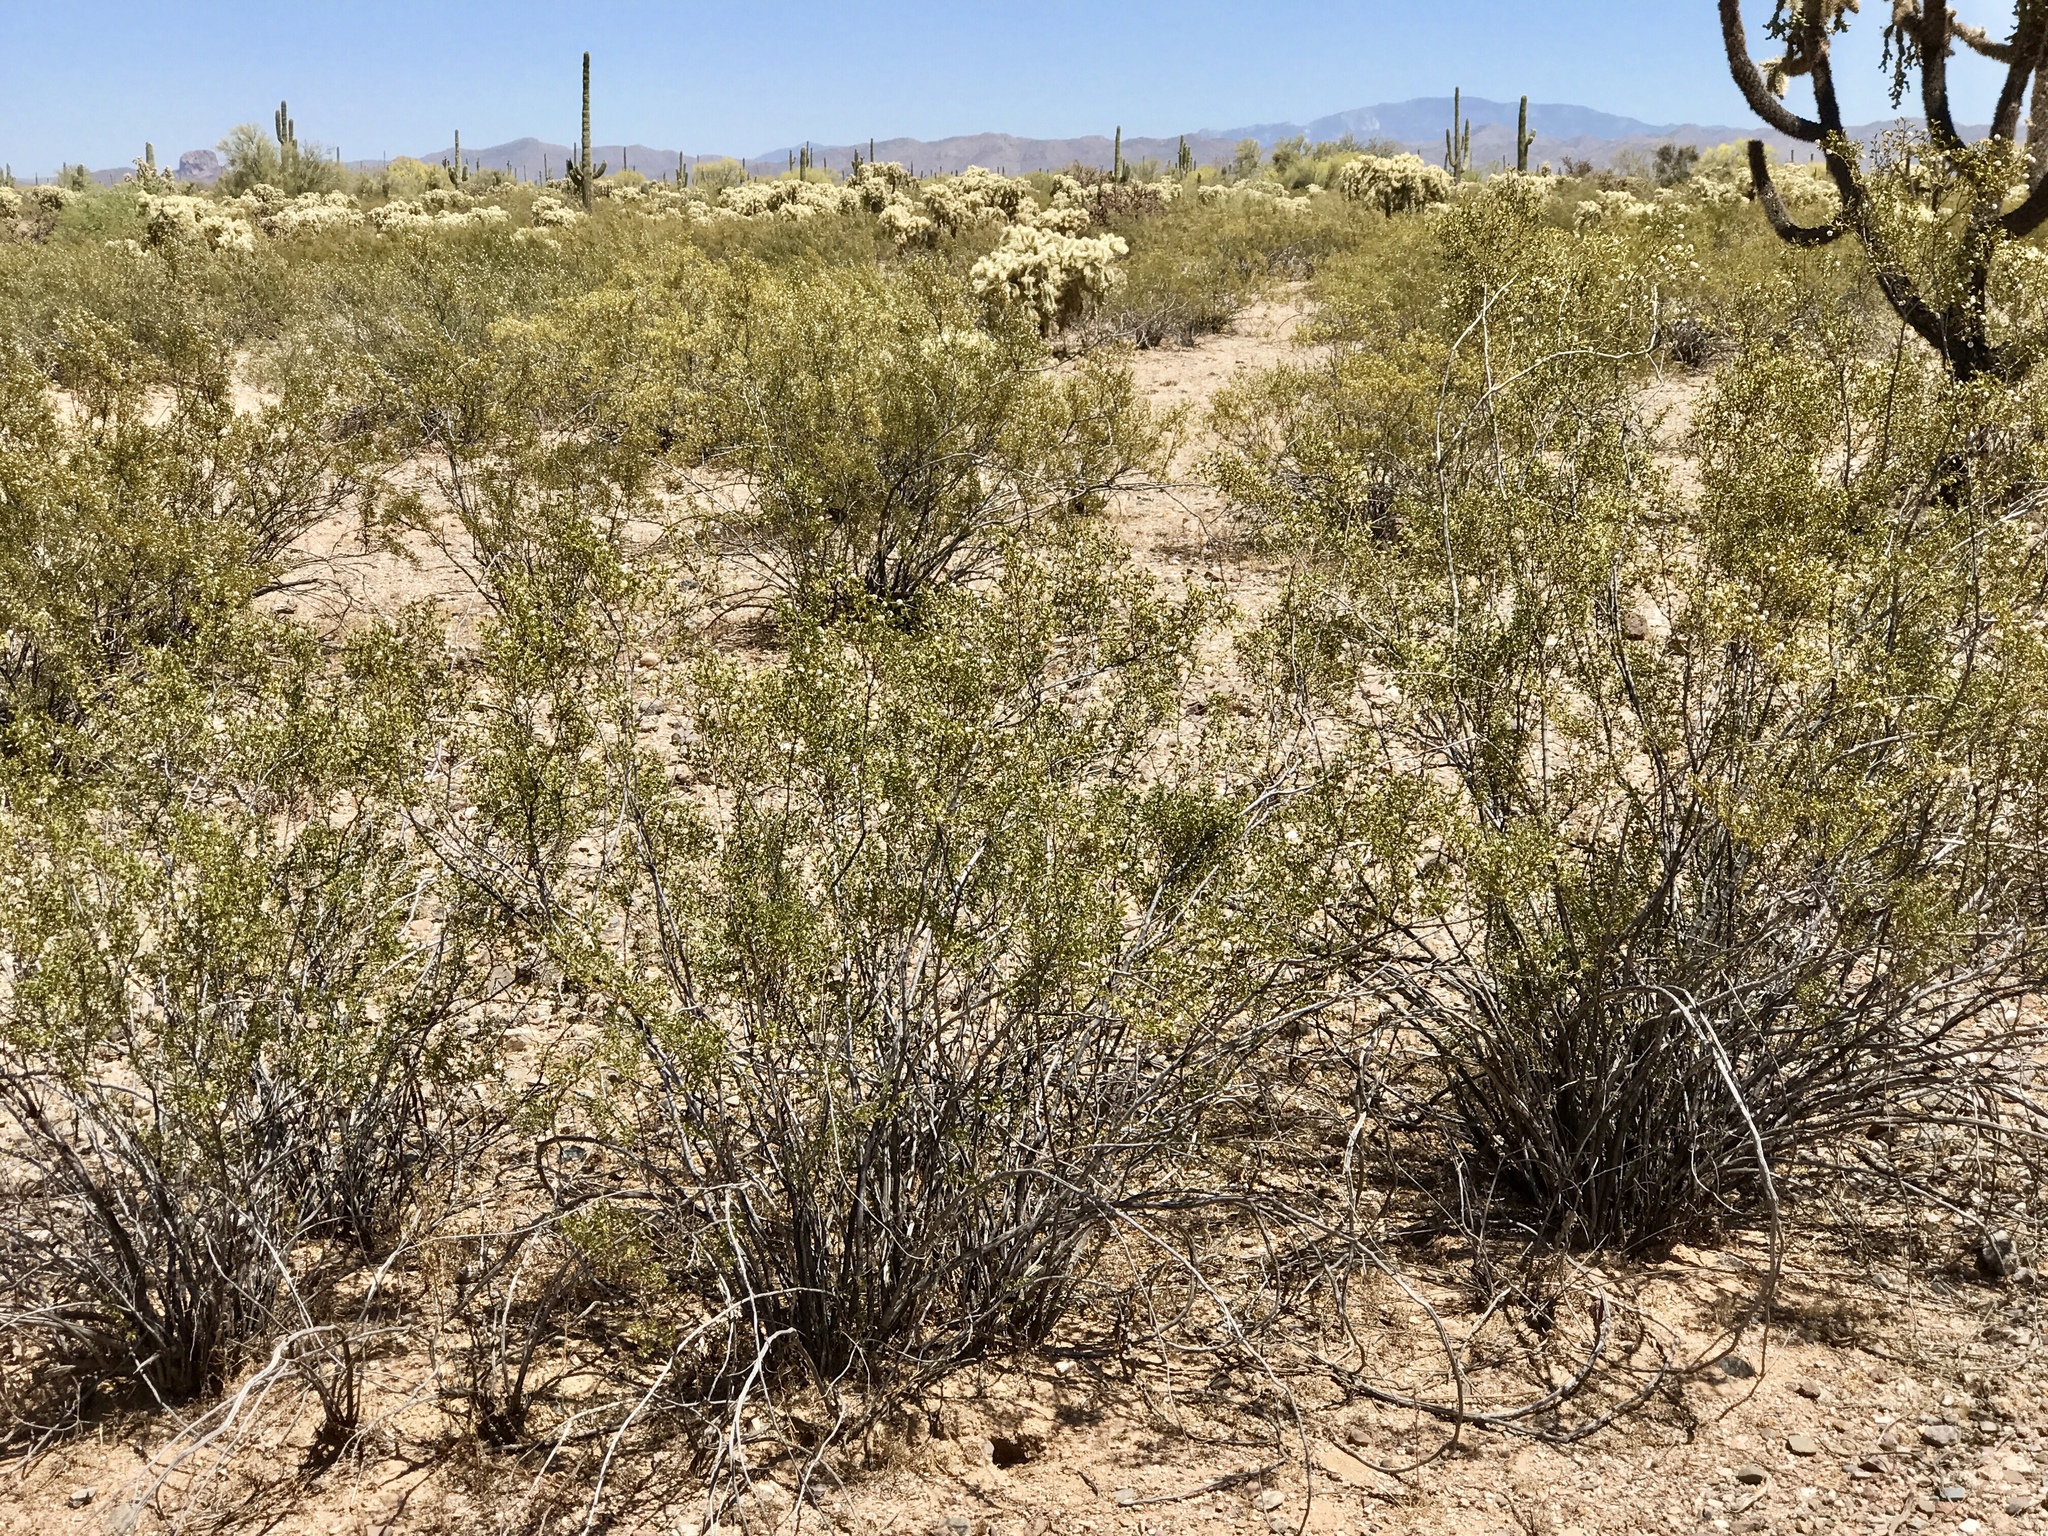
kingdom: Plantae
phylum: Tracheophyta
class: Magnoliopsida
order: Zygophyllales
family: Zygophyllaceae
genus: Larrea
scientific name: Larrea tridentata
